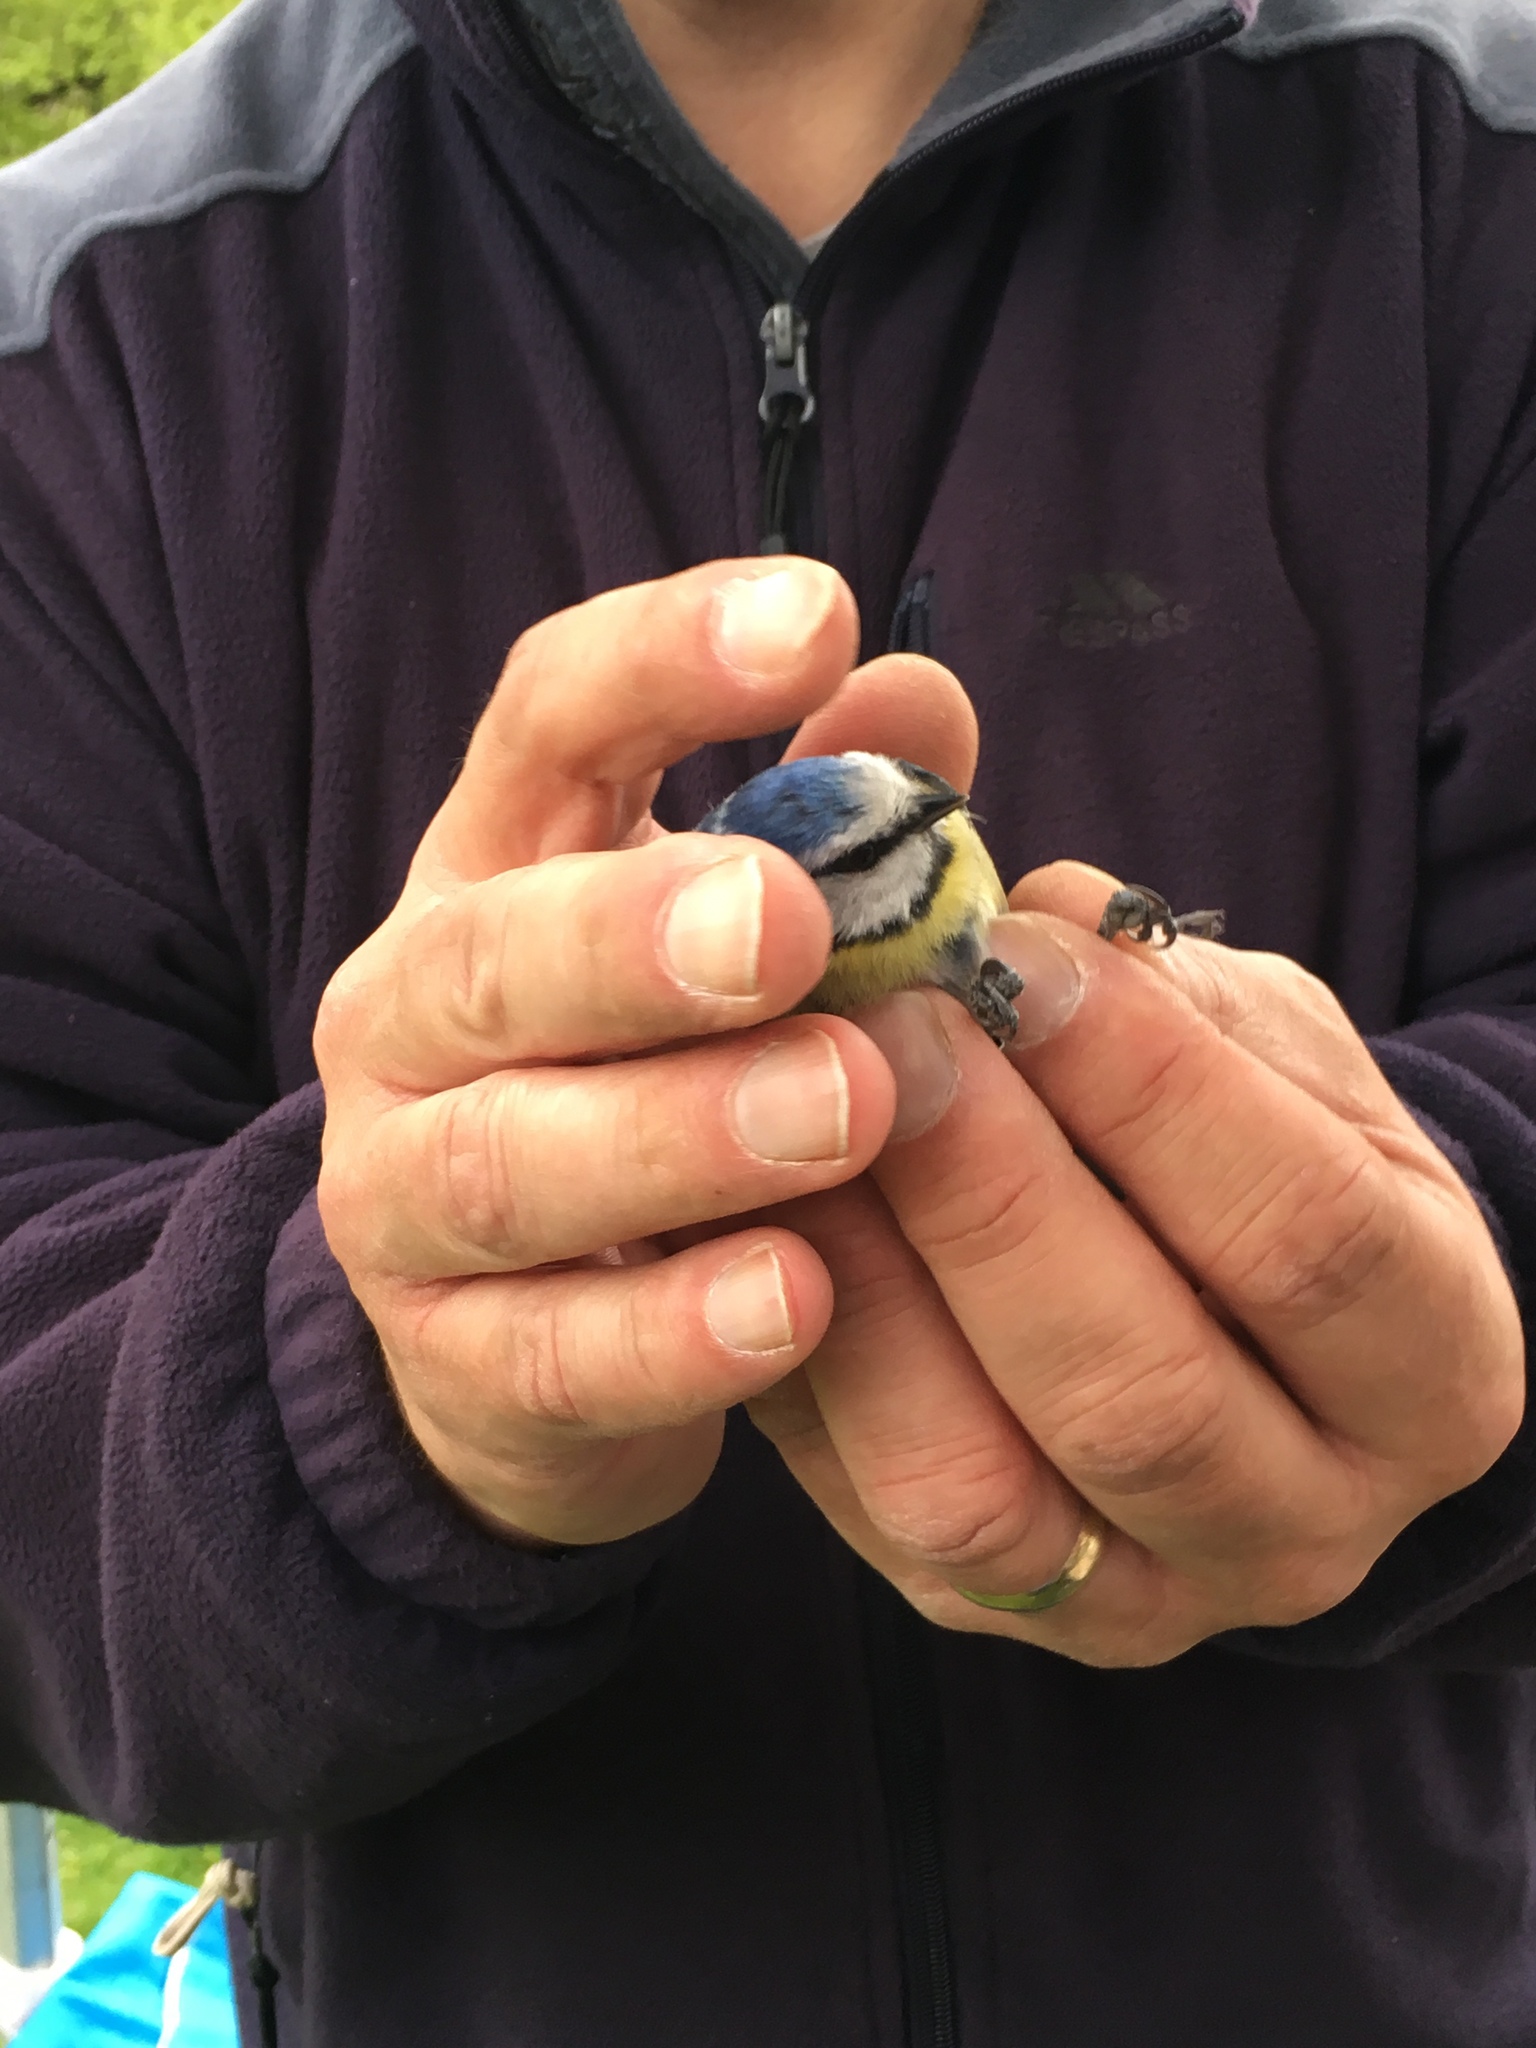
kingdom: Animalia
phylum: Chordata
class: Aves
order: Passeriformes
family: Paridae
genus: Cyanistes
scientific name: Cyanistes caeruleus
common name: Eurasian blue tit
